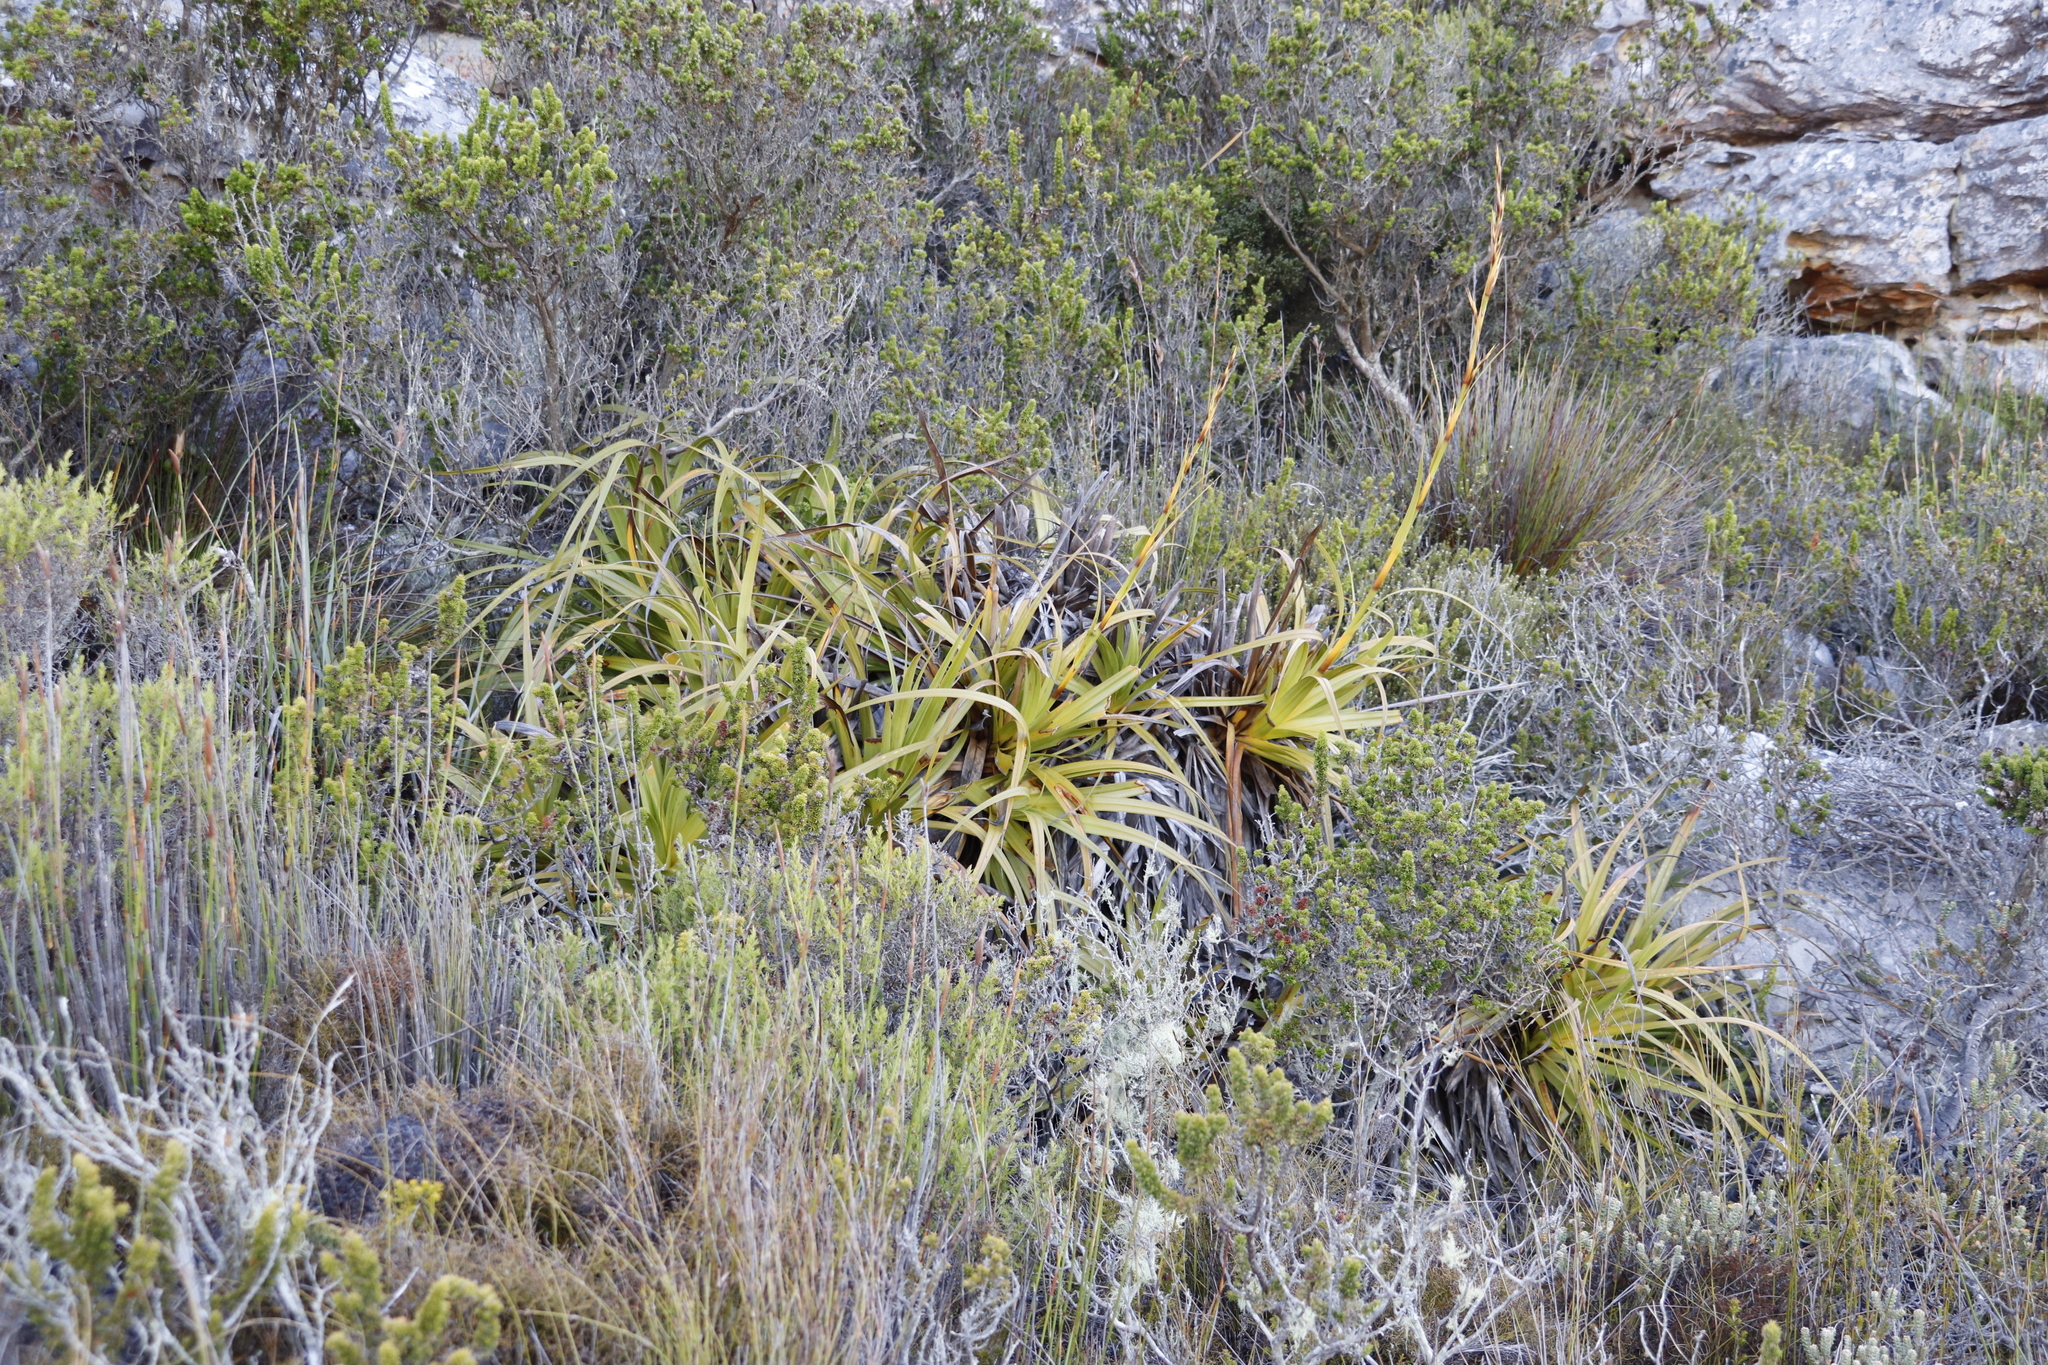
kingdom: Plantae
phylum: Tracheophyta
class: Liliopsida
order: Poales
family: Cyperaceae
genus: Tetraria
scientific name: Tetraria thermalis
